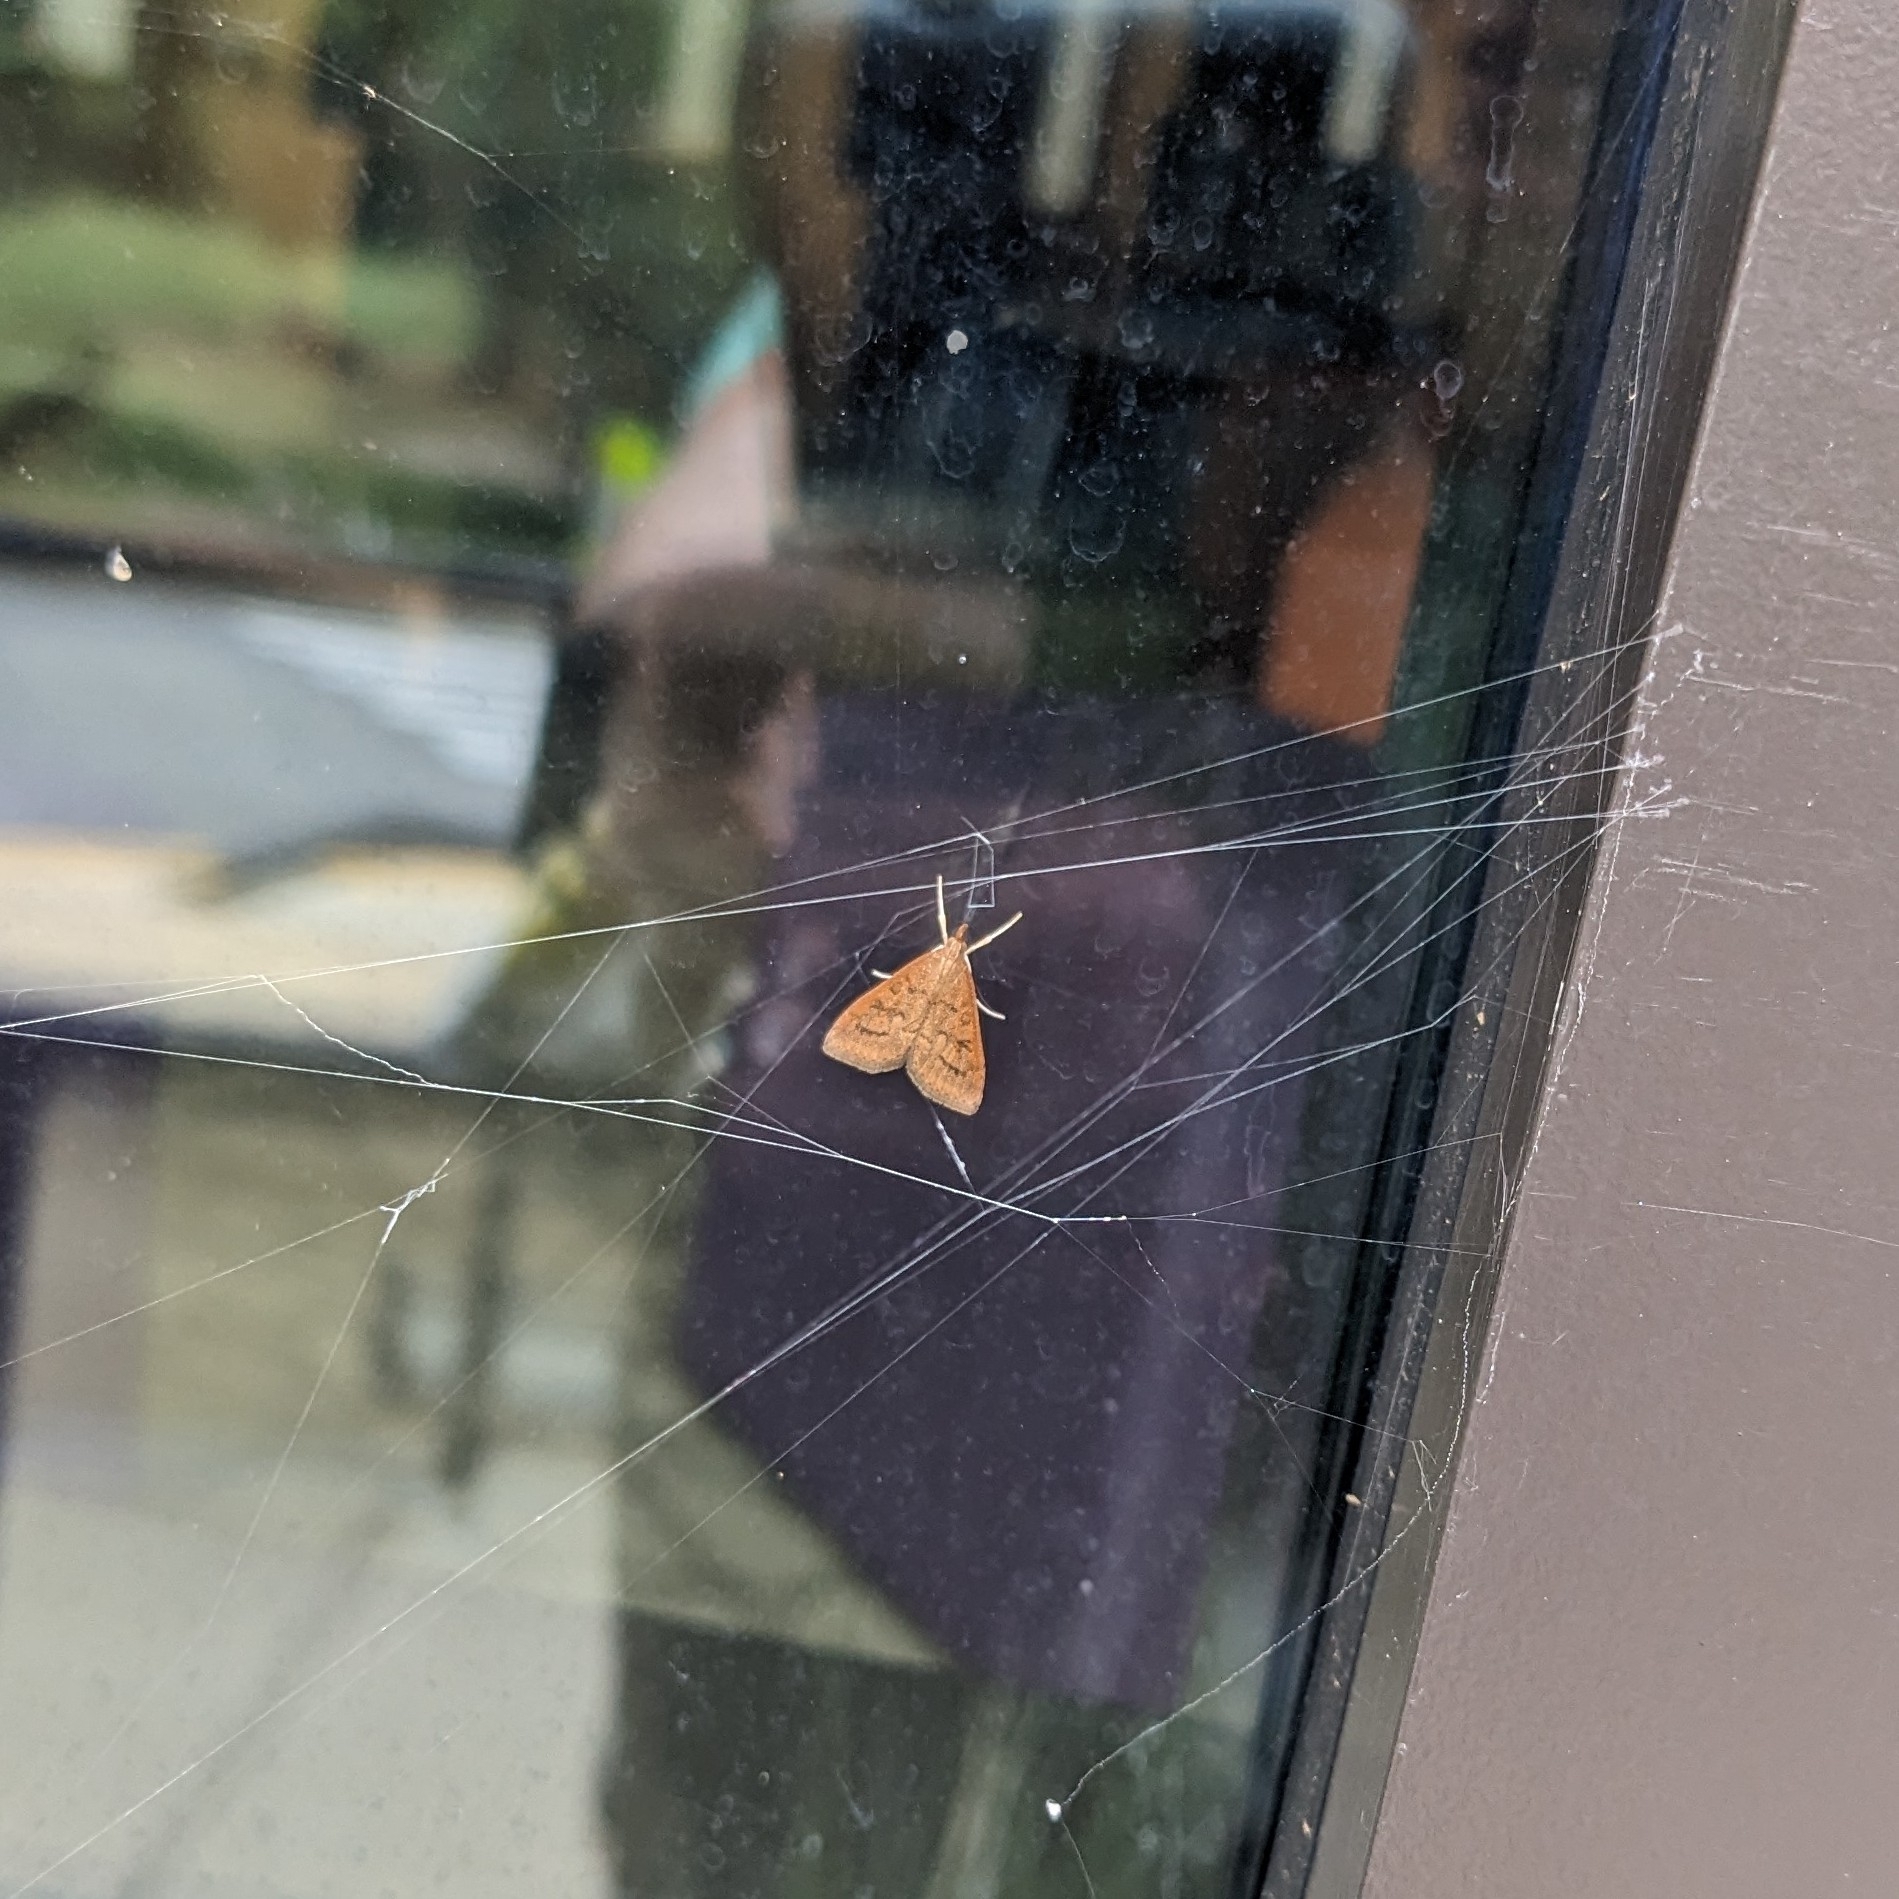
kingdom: Animalia
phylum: Arthropoda
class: Insecta
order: Lepidoptera
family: Crambidae
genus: Udea
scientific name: Udea rubigalis
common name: Celery leaftier moth
